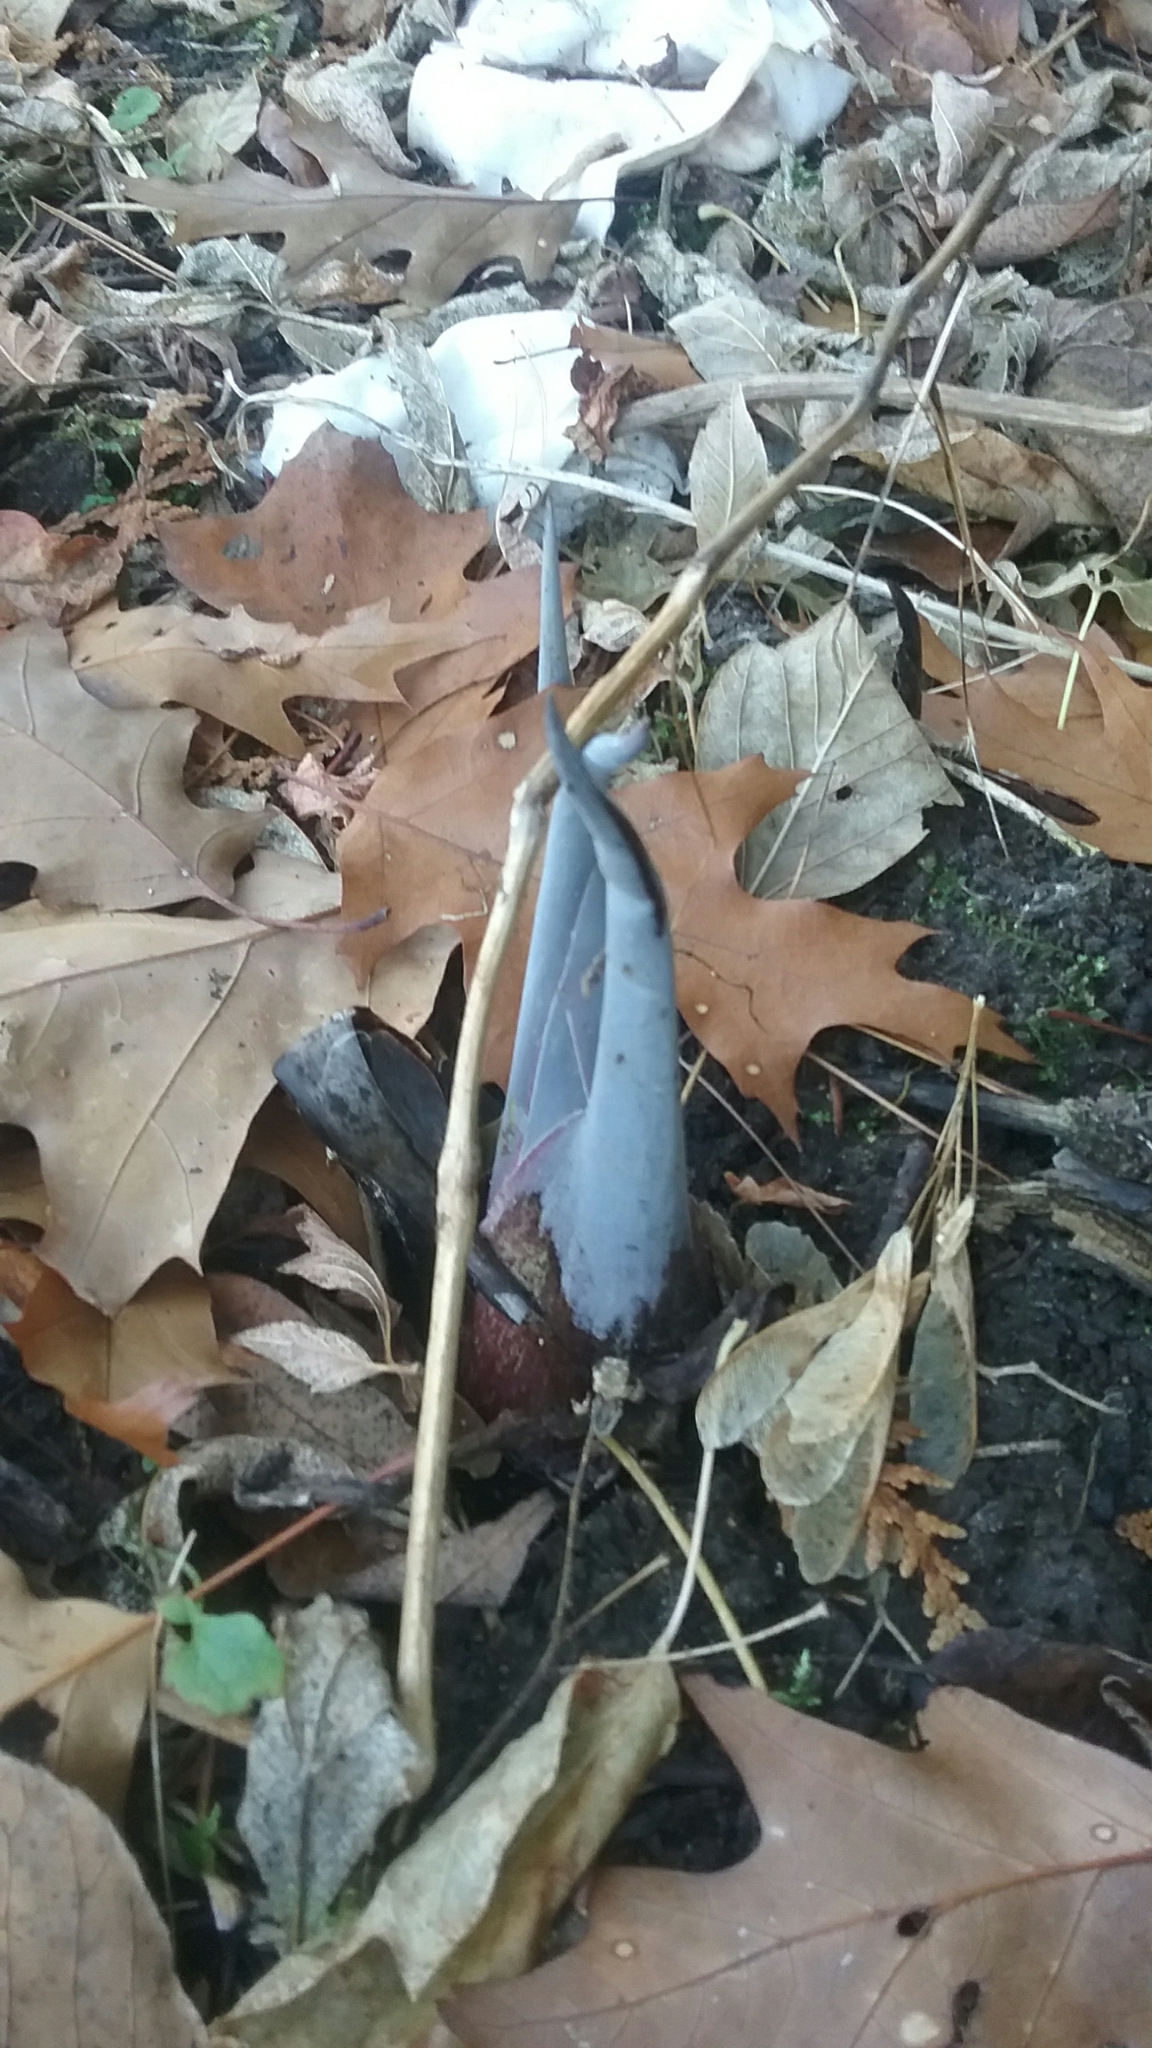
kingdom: Plantae
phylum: Tracheophyta
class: Liliopsida
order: Alismatales
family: Araceae
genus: Symplocarpus
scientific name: Symplocarpus foetidus
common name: Eastern skunk cabbage
